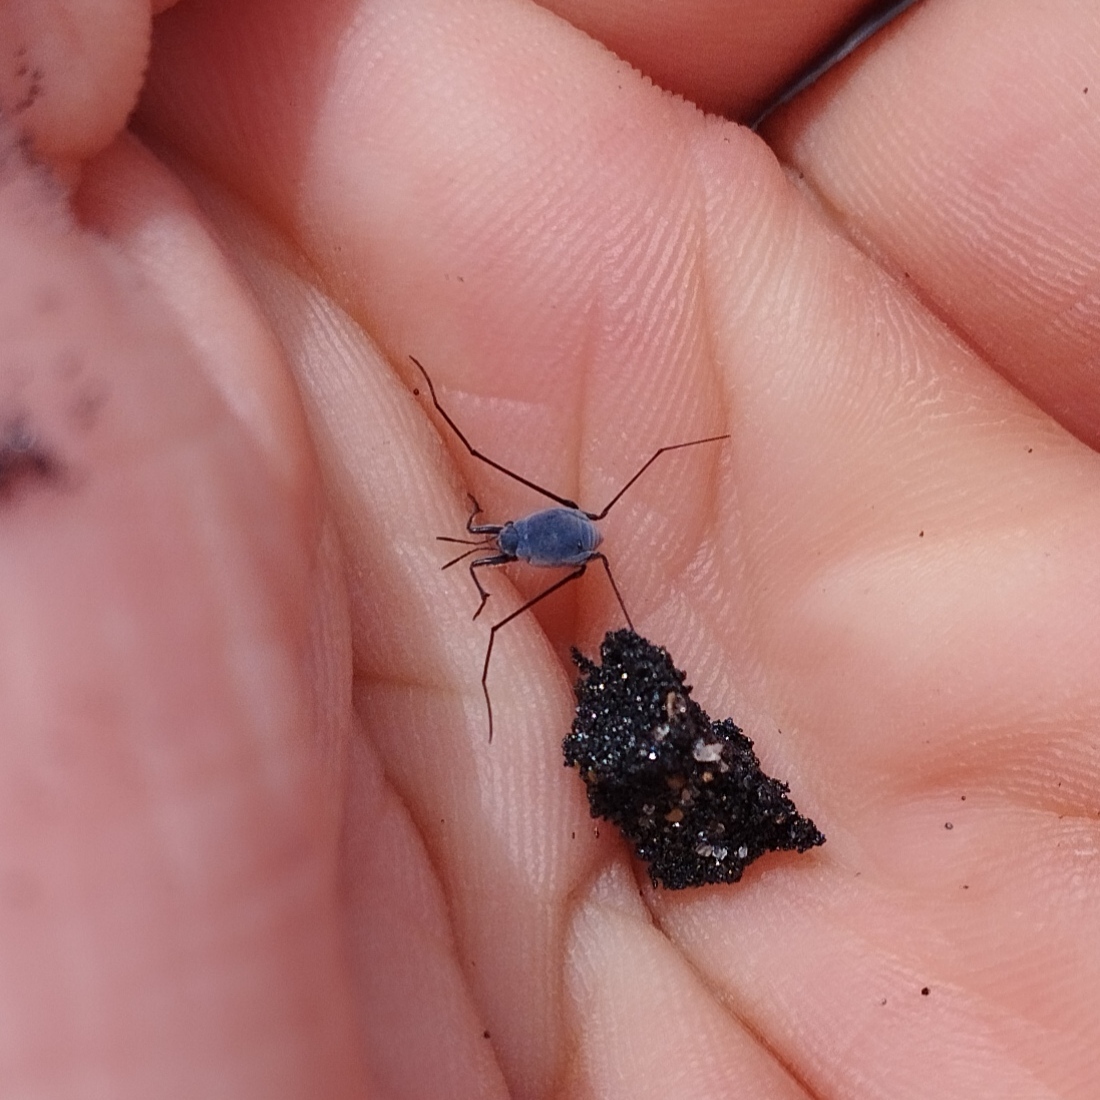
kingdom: Animalia
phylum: Arthropoda
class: Insecta
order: Hemiptera
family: Gerridae
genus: Halobates
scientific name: Halobates
